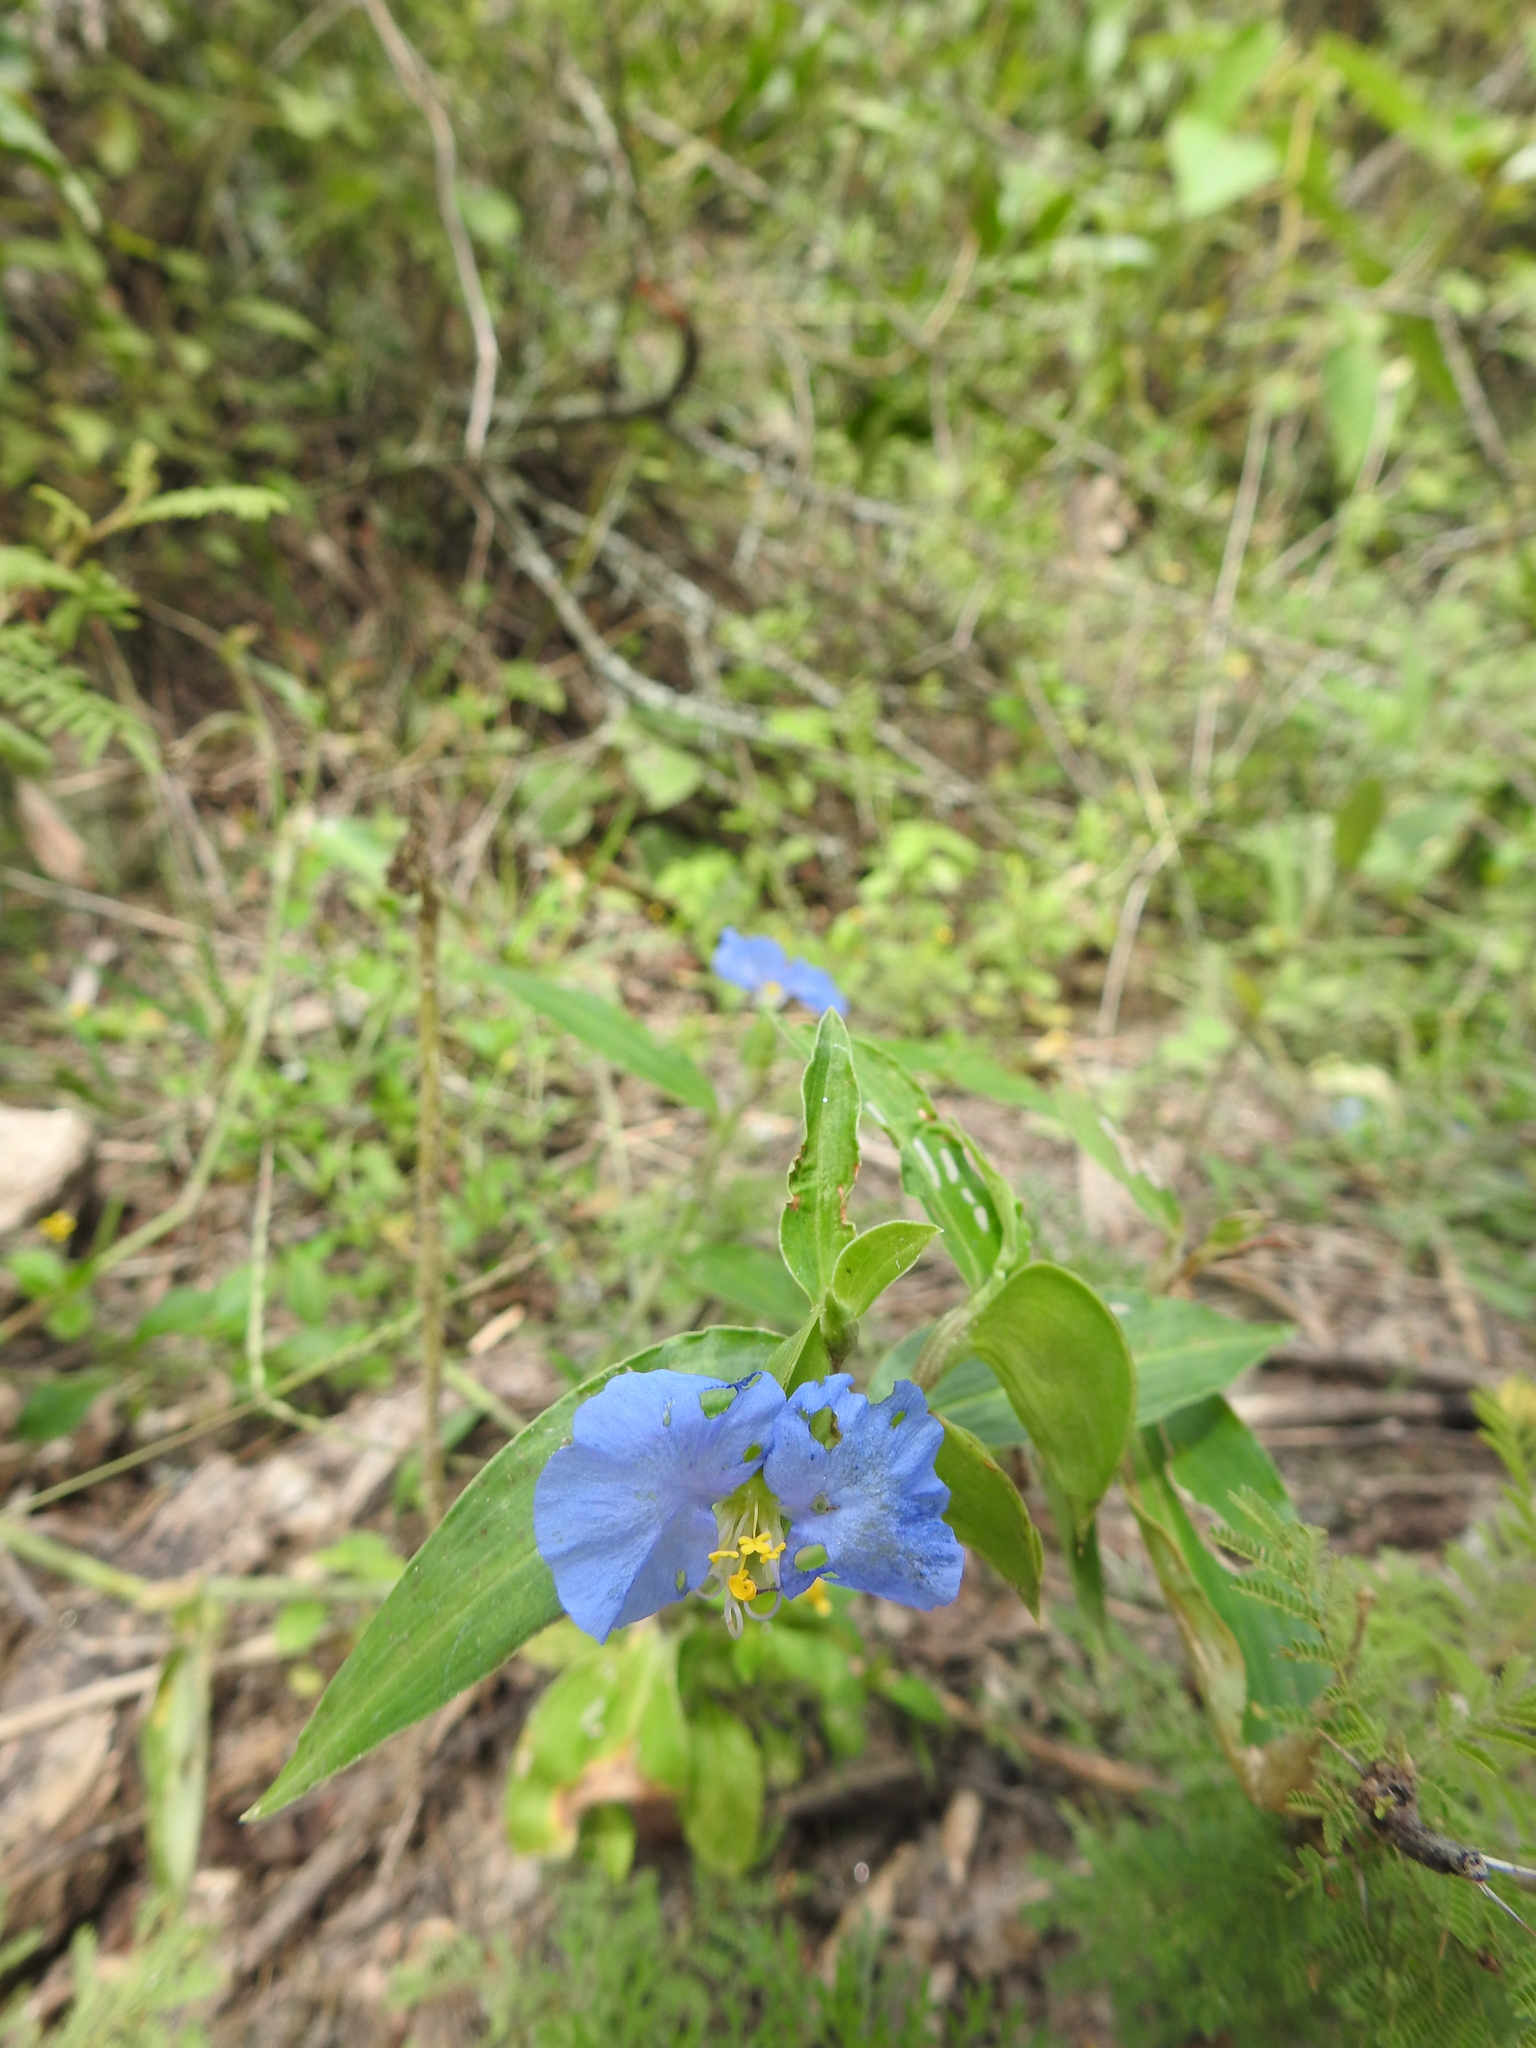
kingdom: Plantae
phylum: Tracheophyta
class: Liliopsida
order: Commelinales
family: Commelinaceae
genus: Commelina
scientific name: Commelina erecta
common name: Blousel blommetjie
